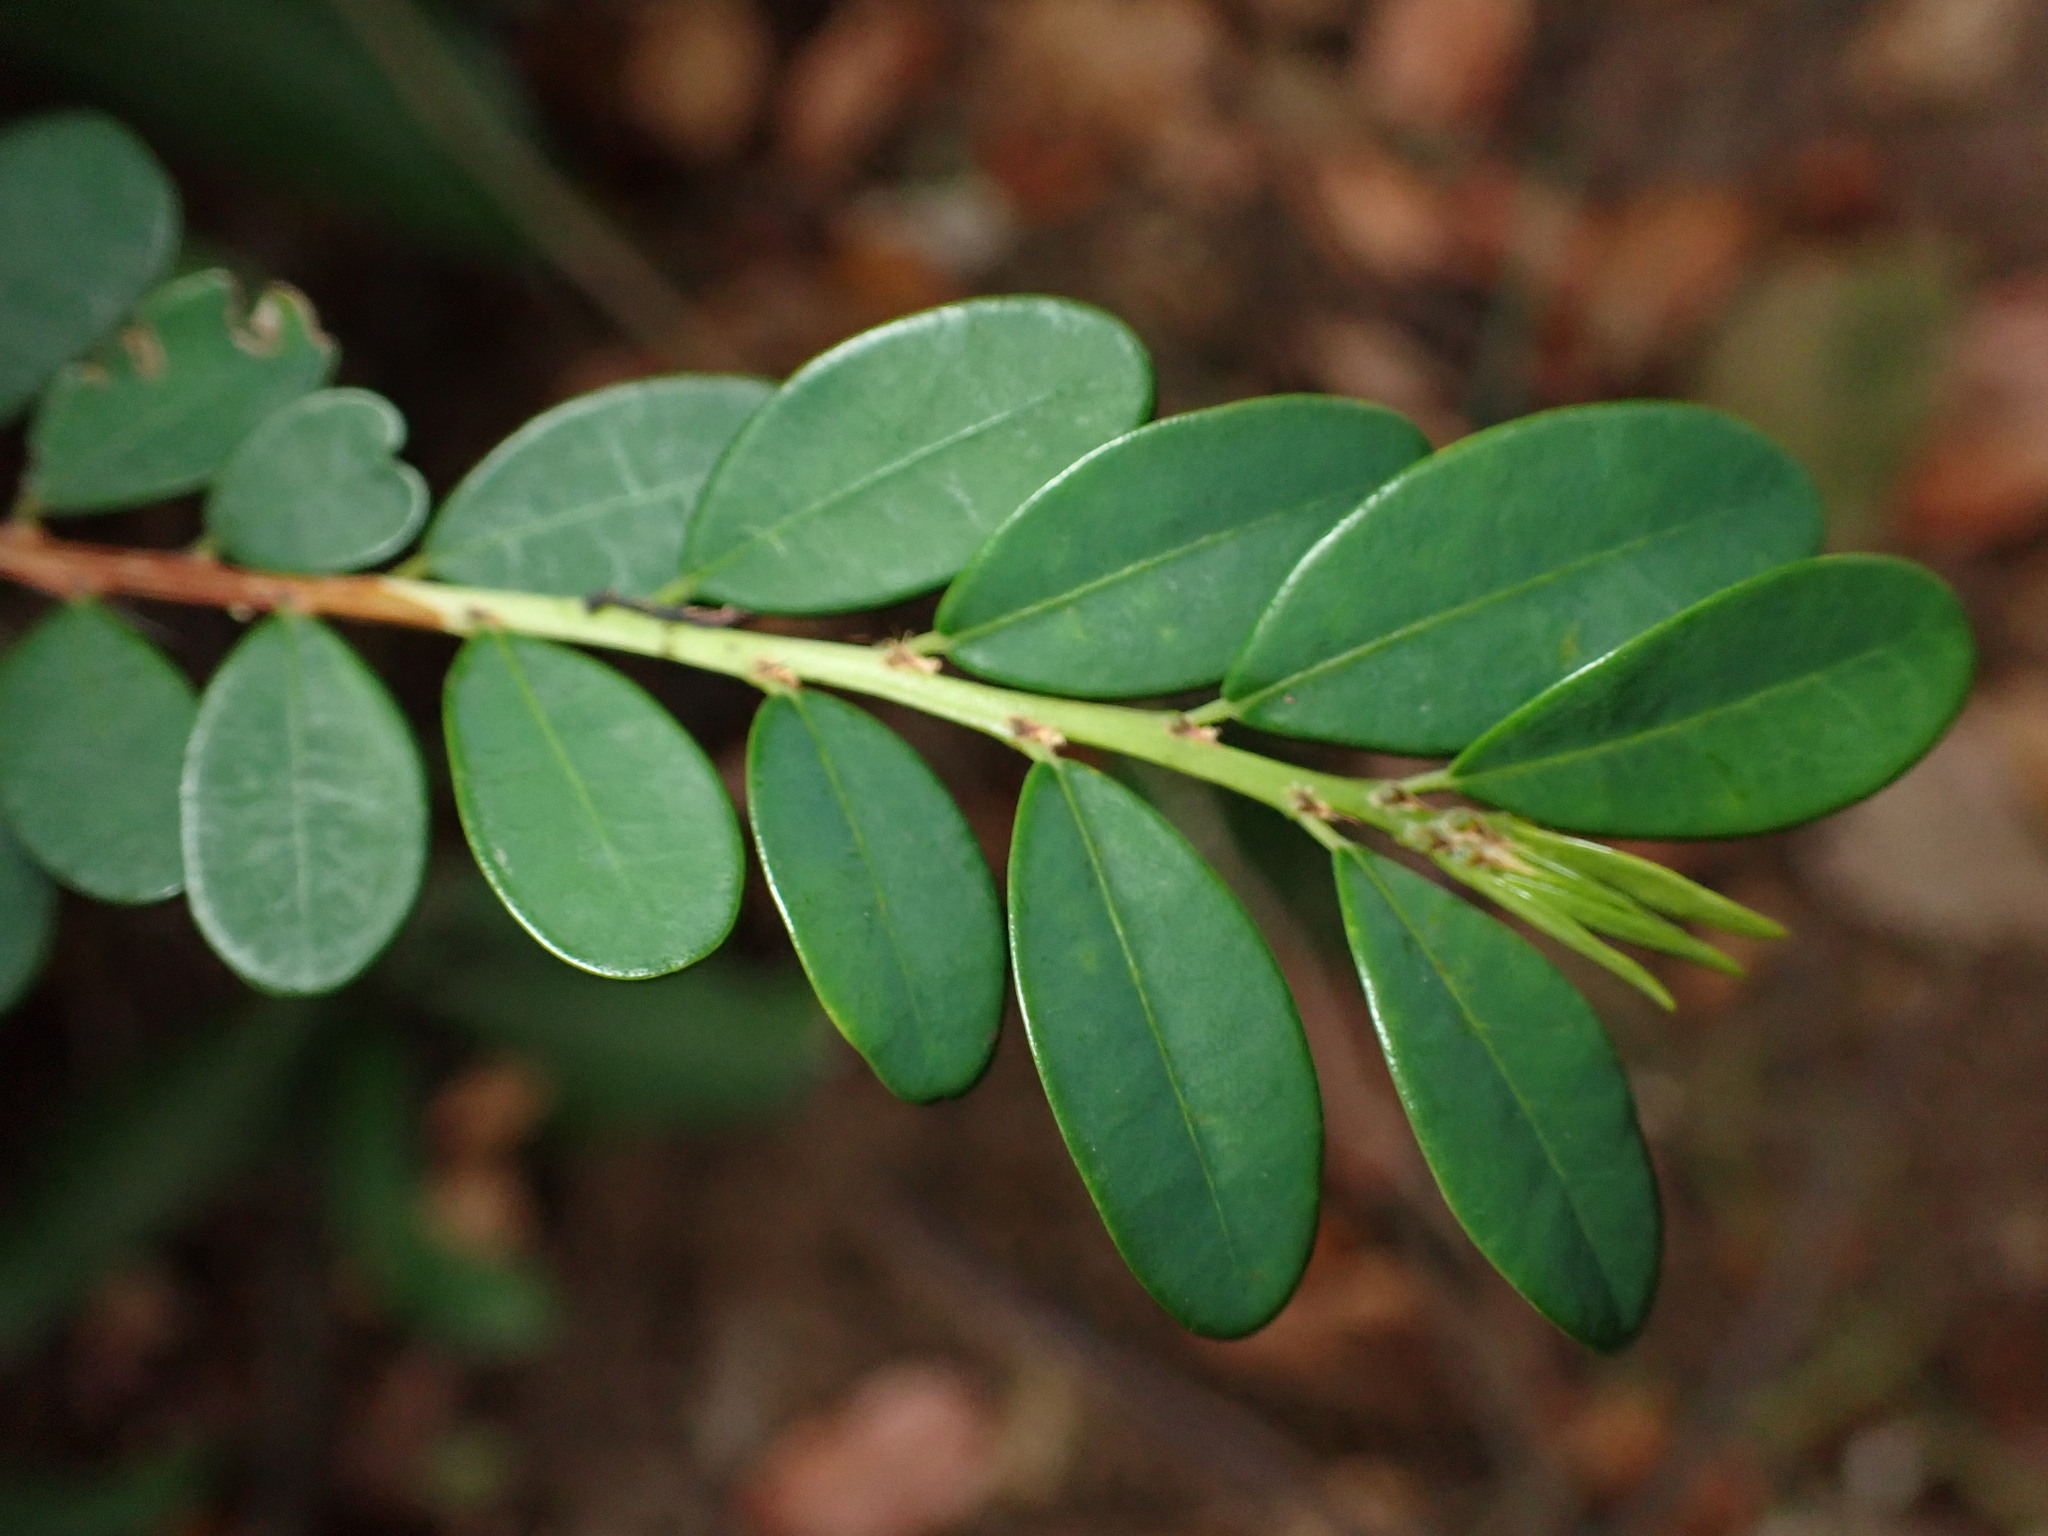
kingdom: Plantae
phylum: Tracheophyta
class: Magnoliopsida
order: Malpighiales
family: Phyllanthaceae
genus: Phyllanthus
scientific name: Phyllanthus cochinchinensis
